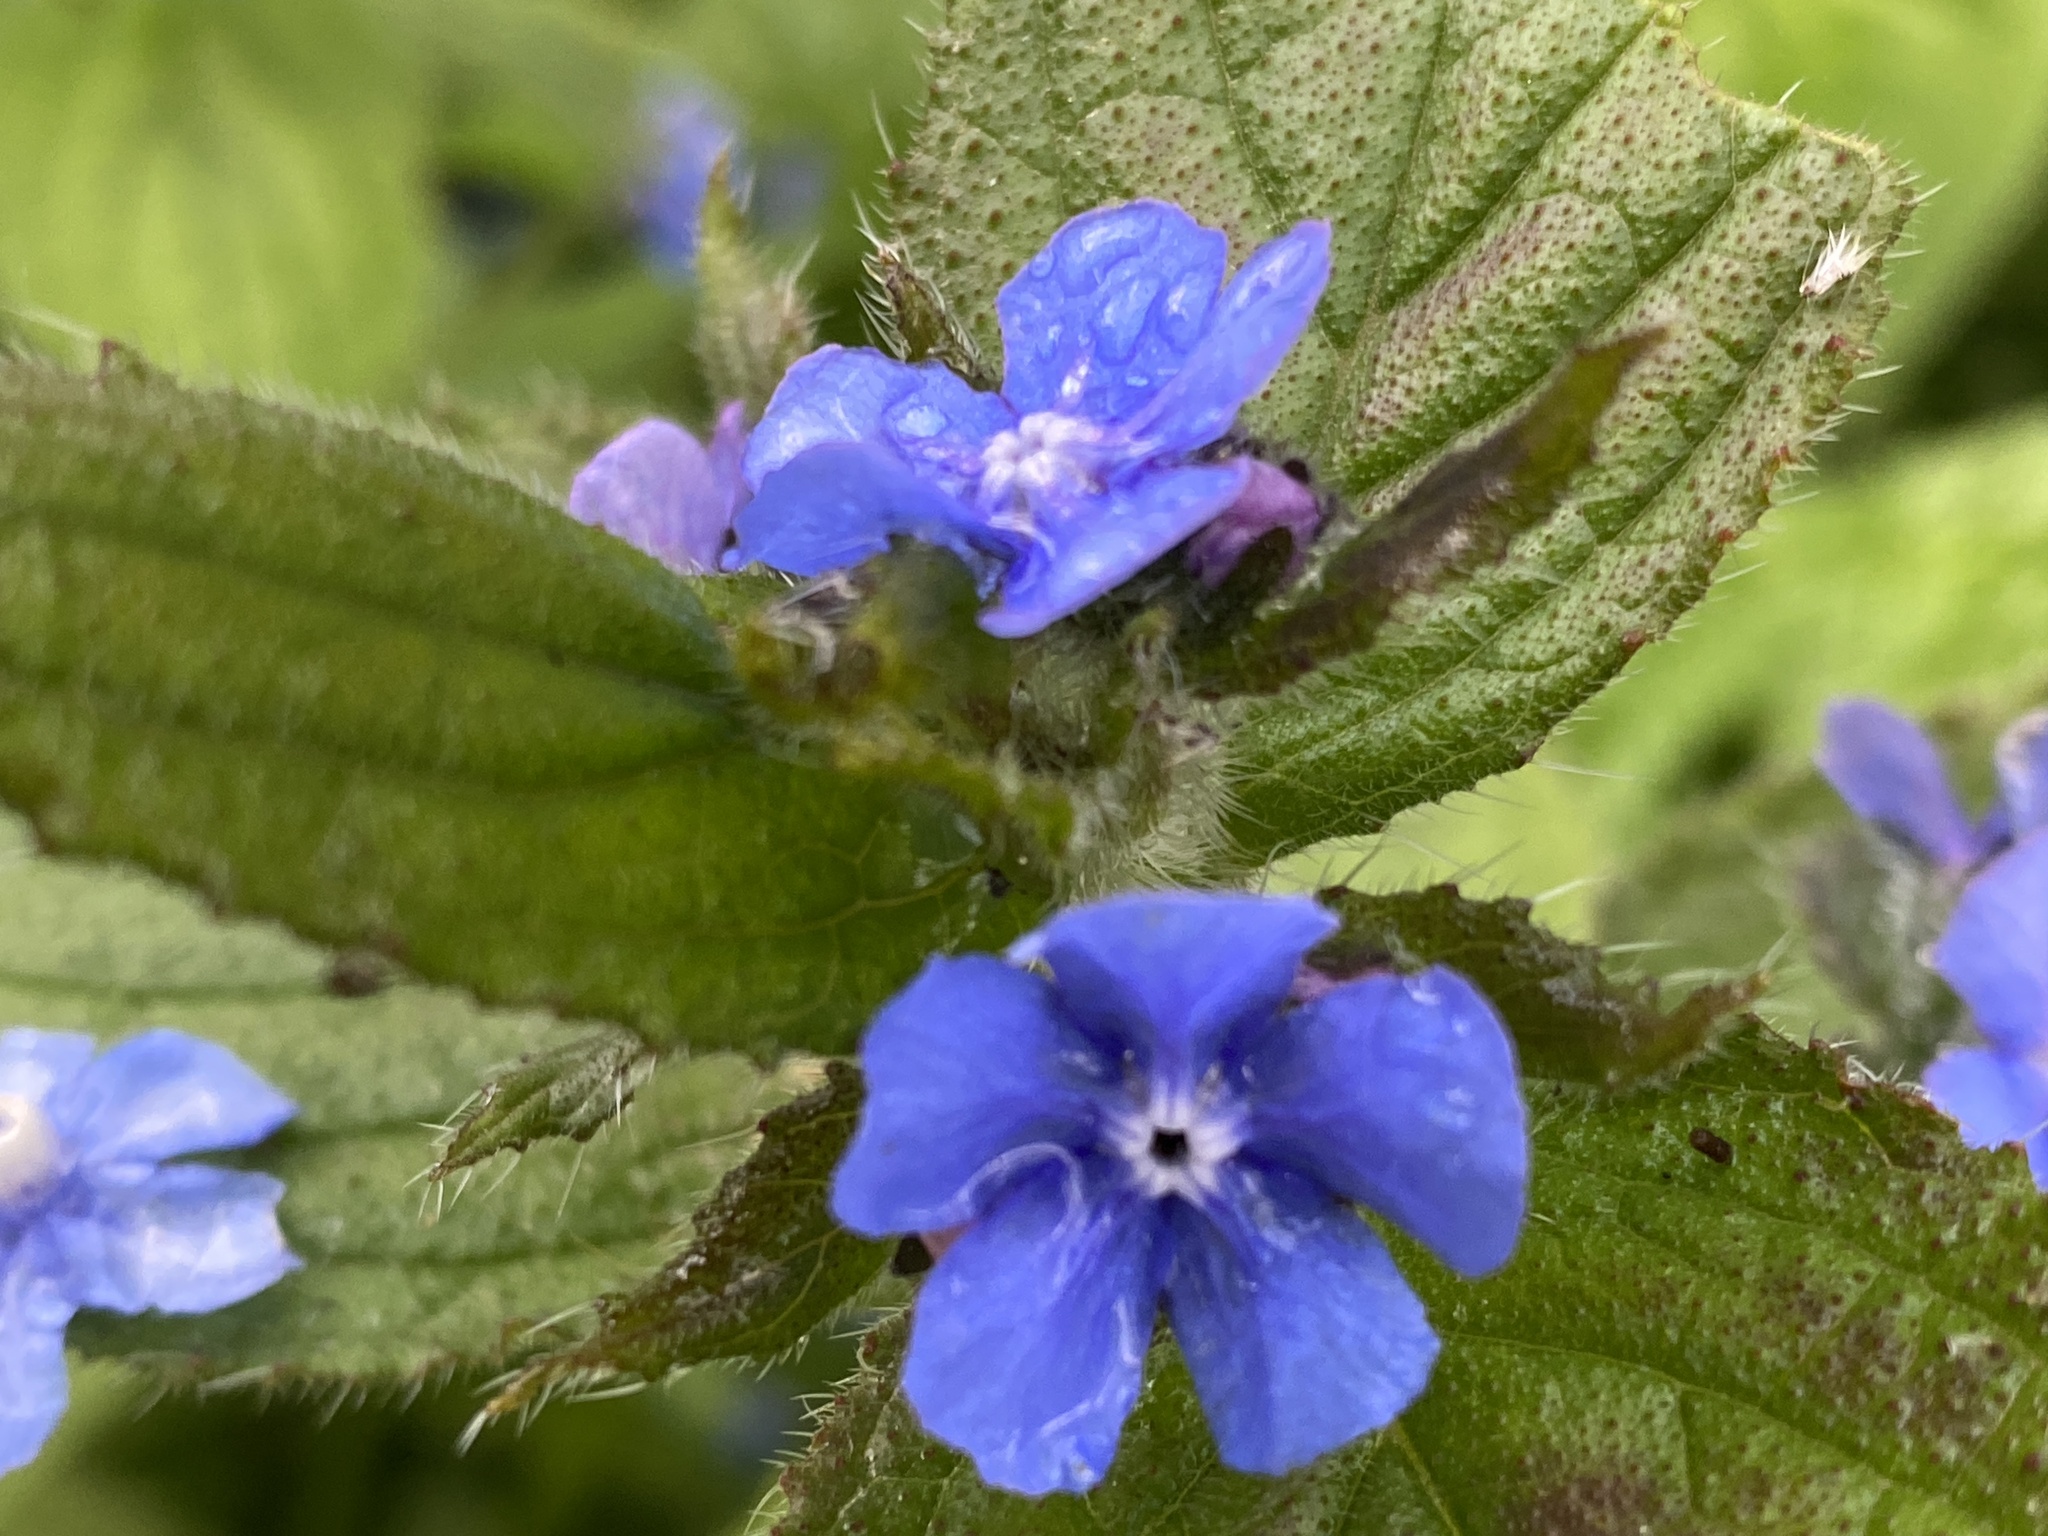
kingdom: Plantae
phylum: Tracheophyta
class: Magnoliopsida
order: Boraginales
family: Boraginaceae
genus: Pentaglottis
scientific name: Pentaglottis sempervirens
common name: Green alkanet
